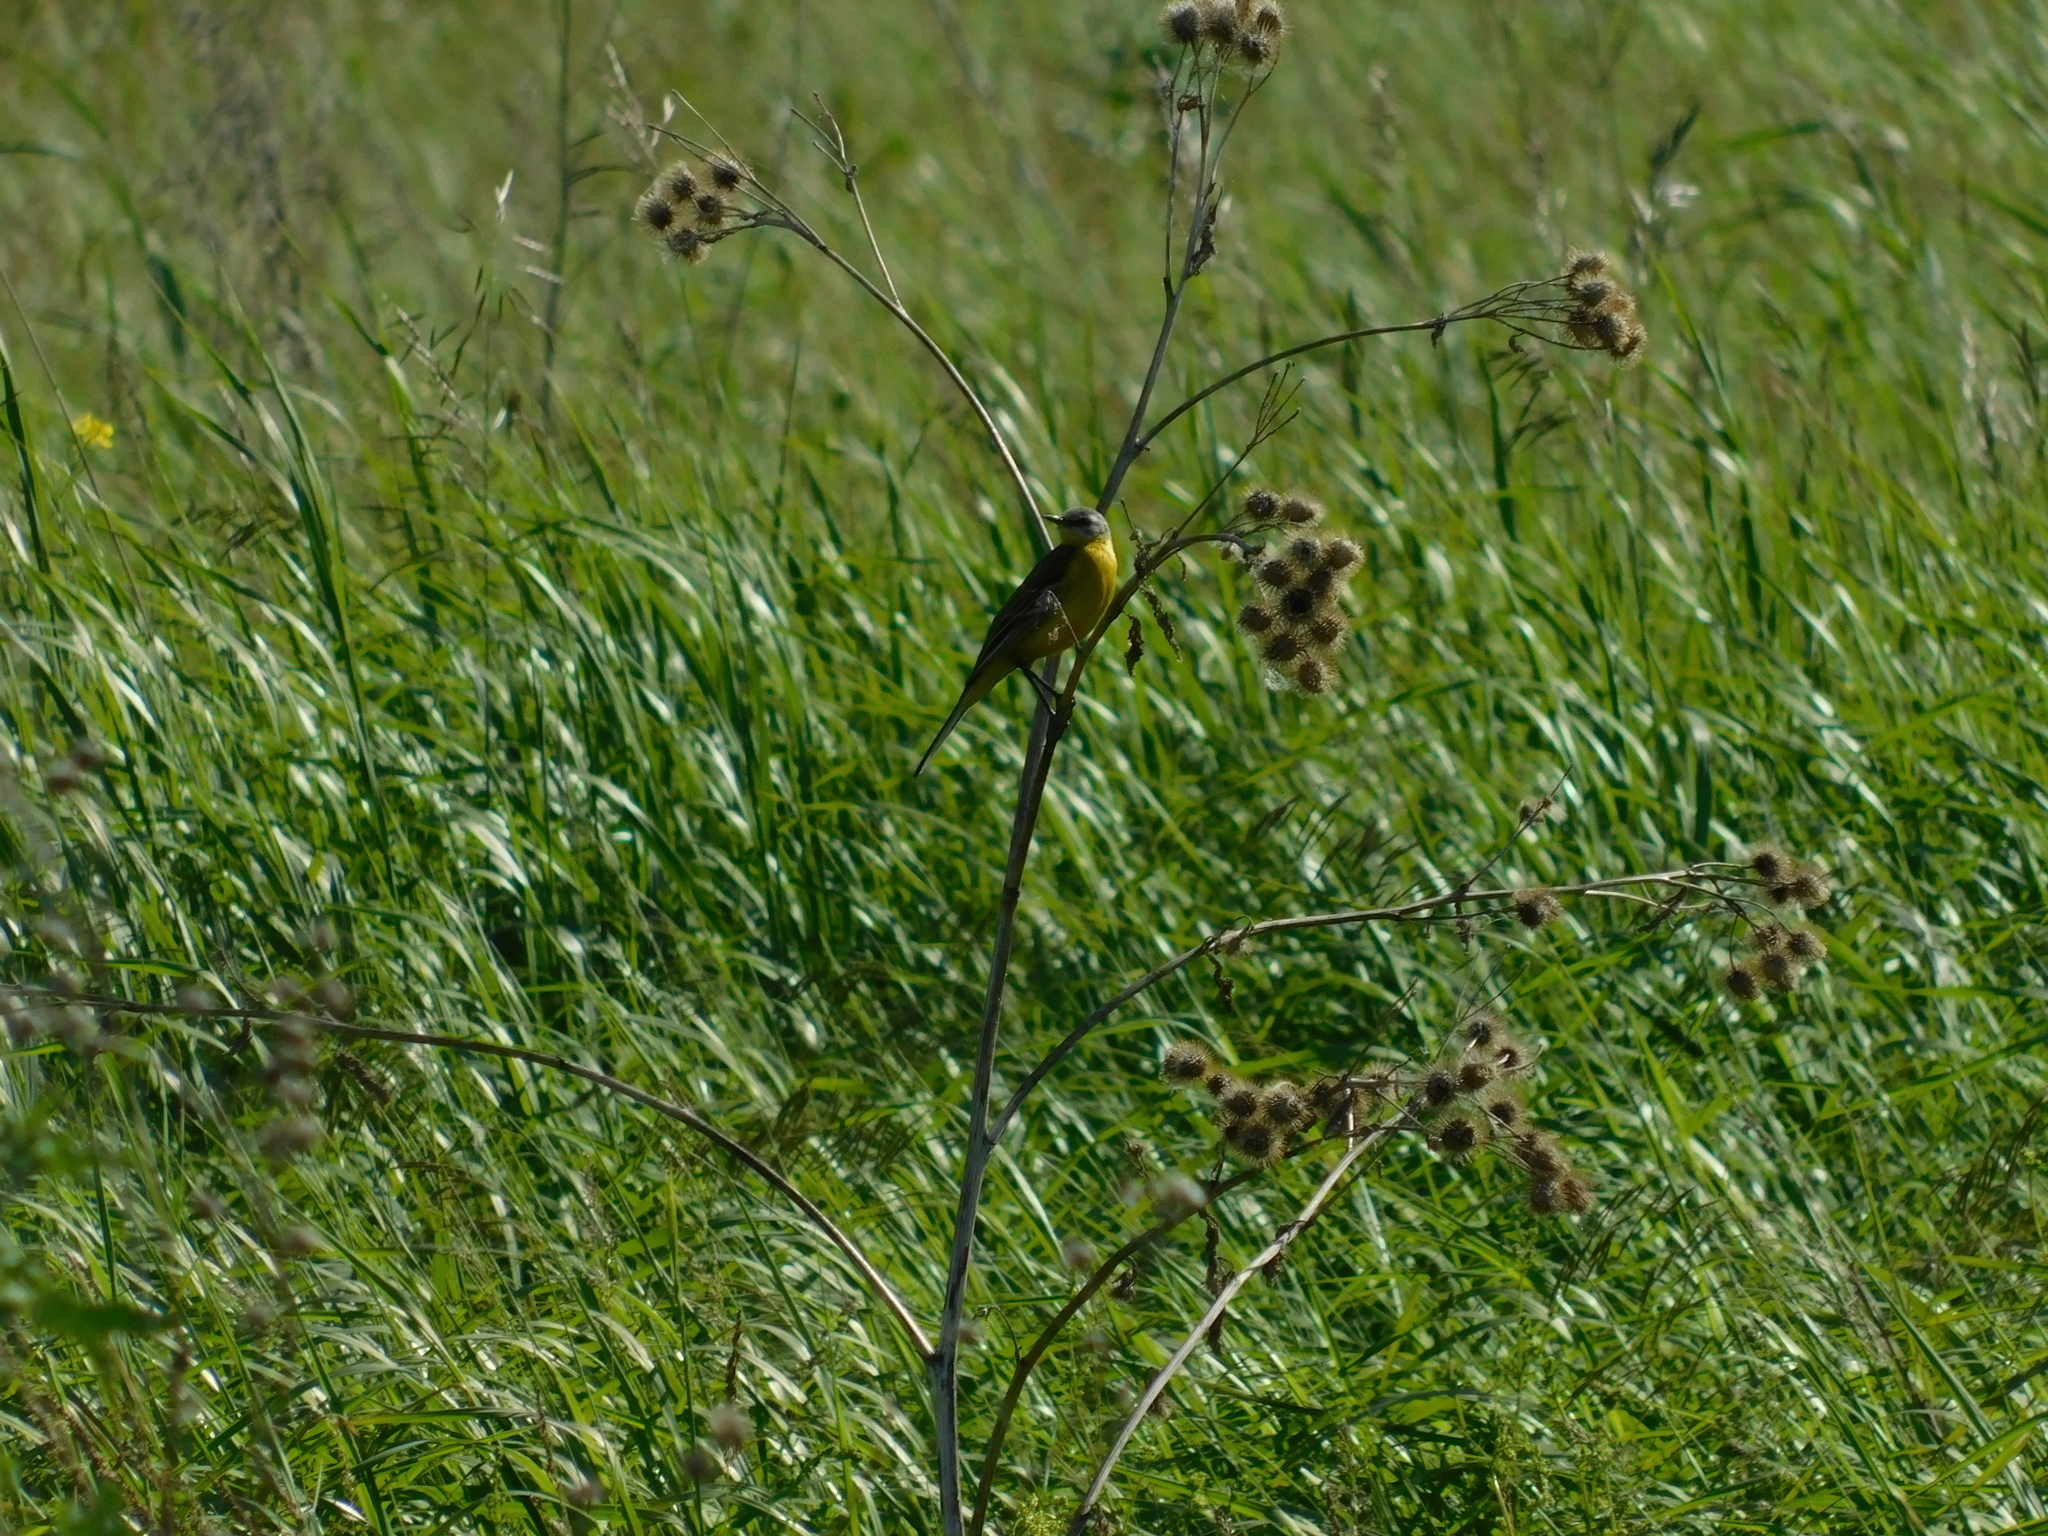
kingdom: Animalia
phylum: Chordata
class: Aves
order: Passeriformes
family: Motacillidae
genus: Motacilla
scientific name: Motacilla flava
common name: Western yellow wagtail
